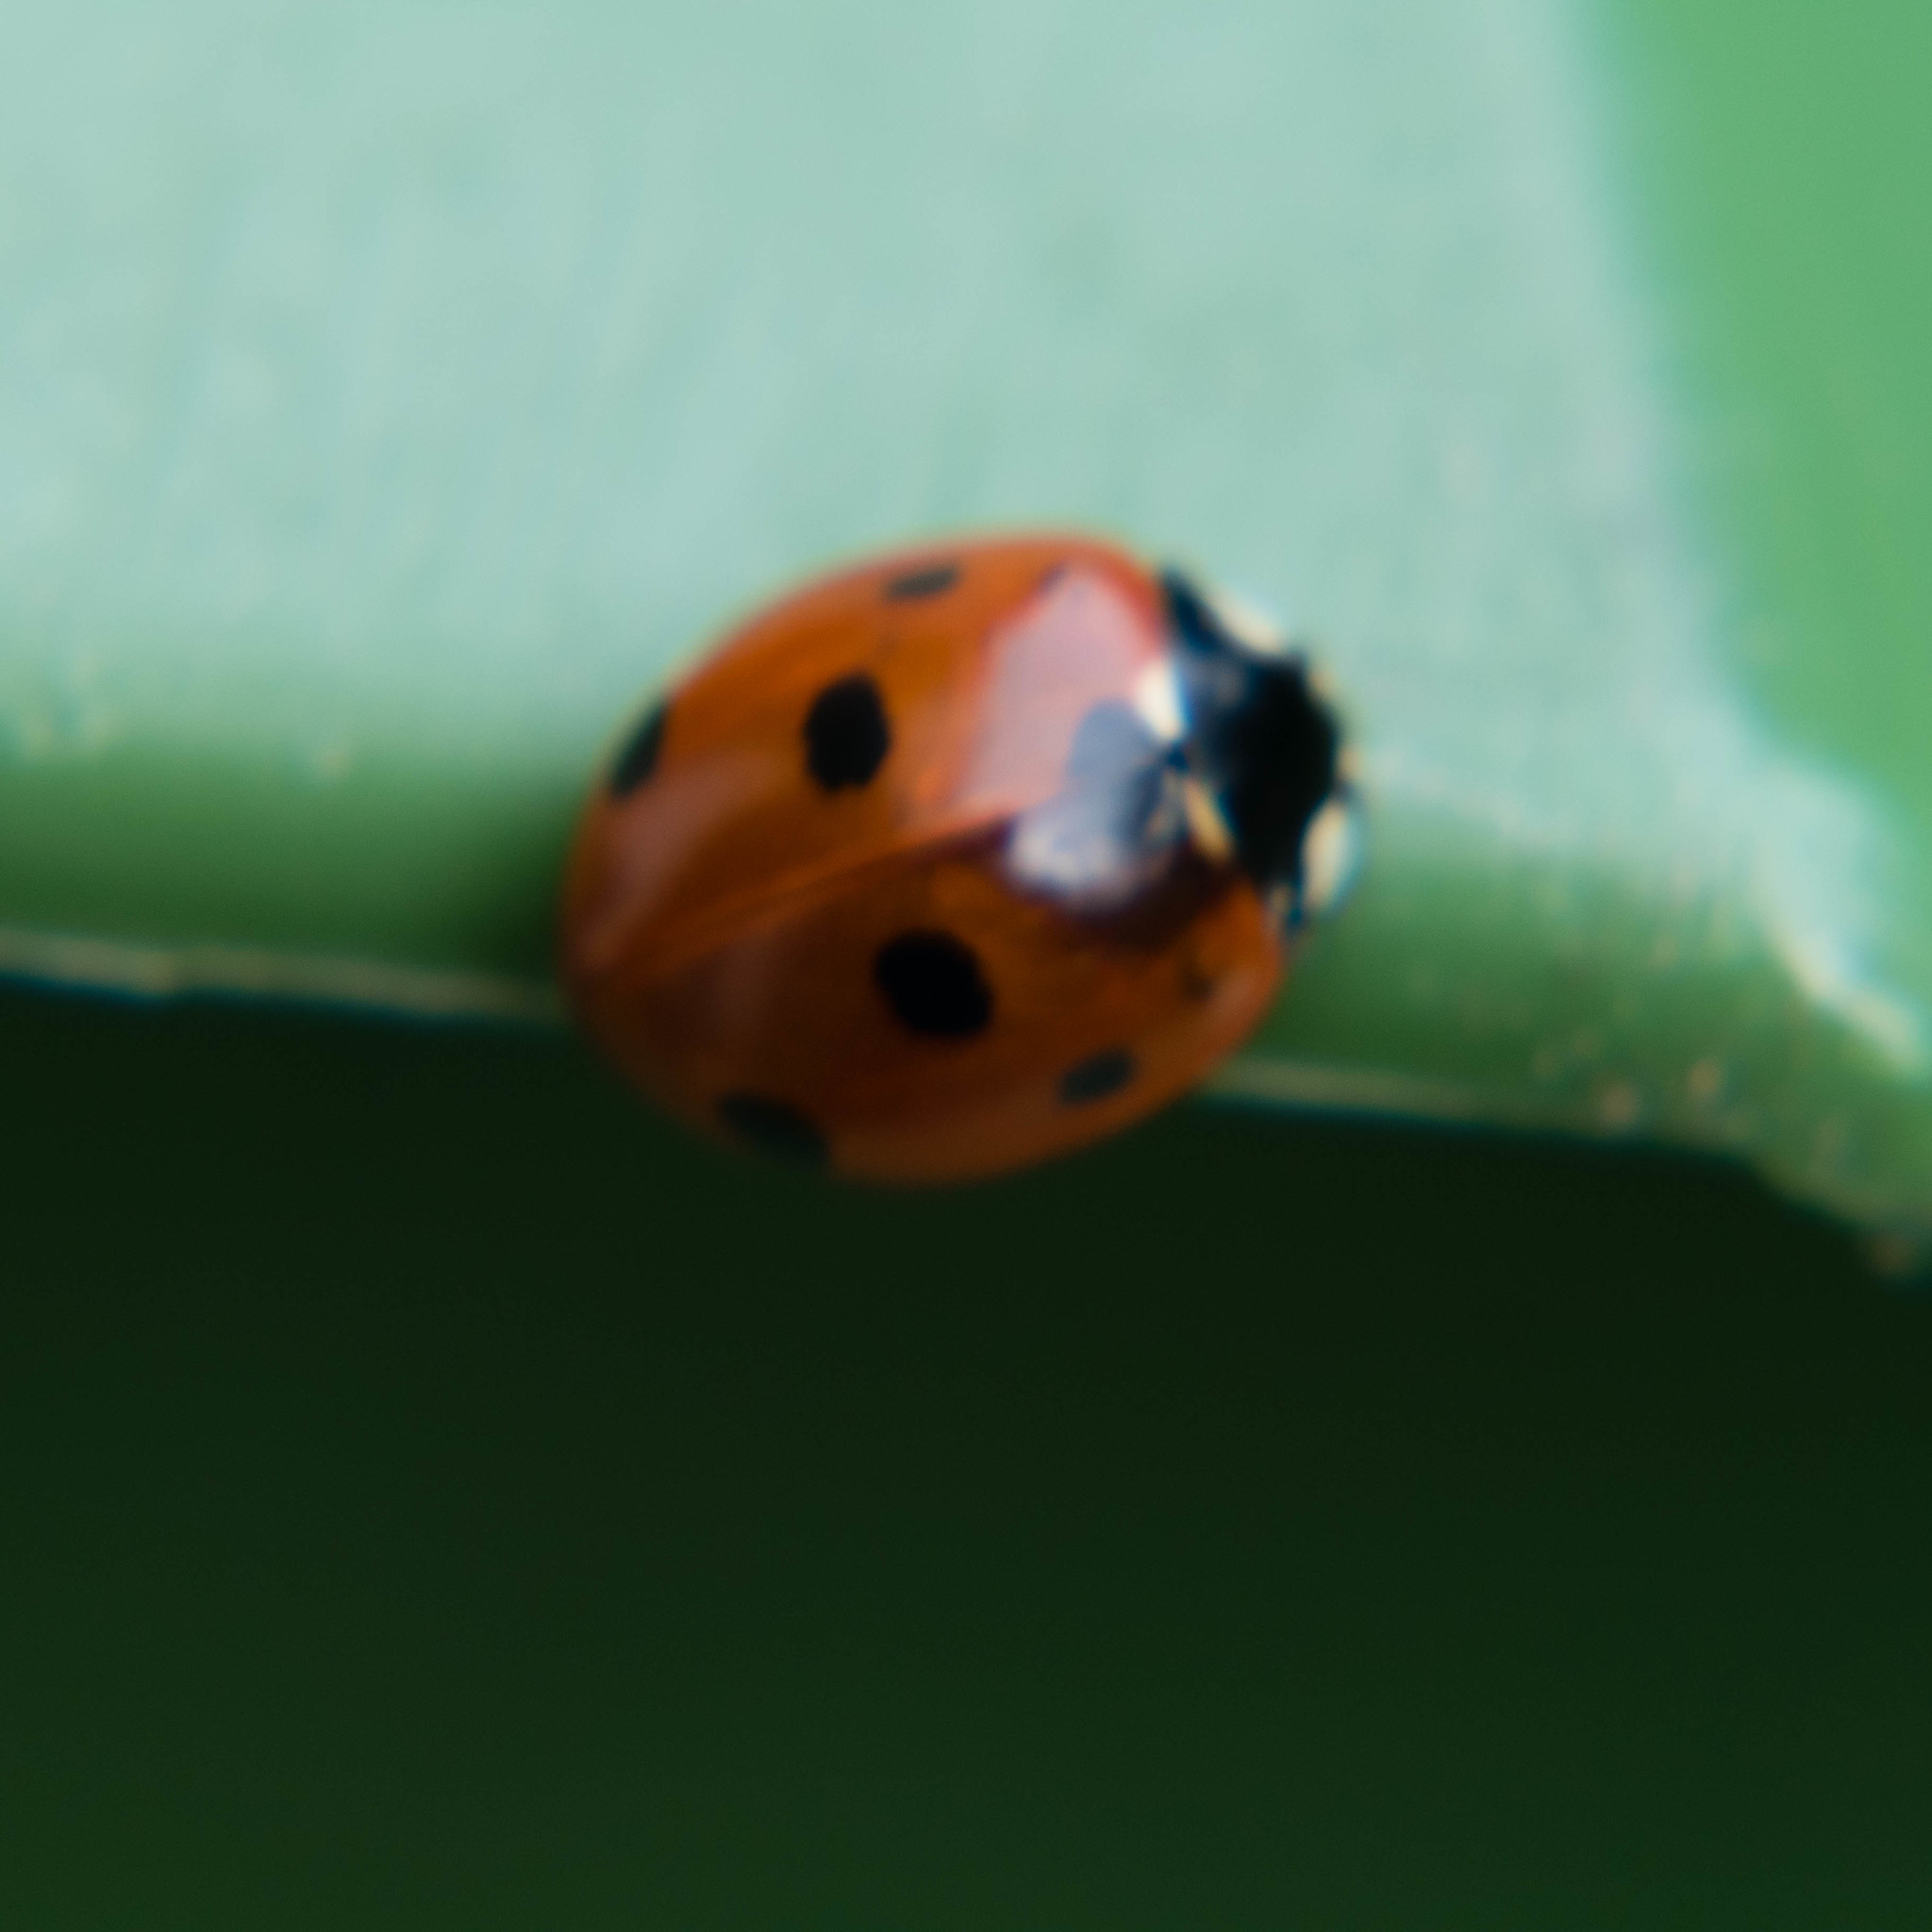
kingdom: Animalia
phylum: Arthropoda
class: Insecta
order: Coleoptera
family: Coccinellidae
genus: Coccinella
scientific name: Coccinella septempunctata
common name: Sevenspotted lady beetle
